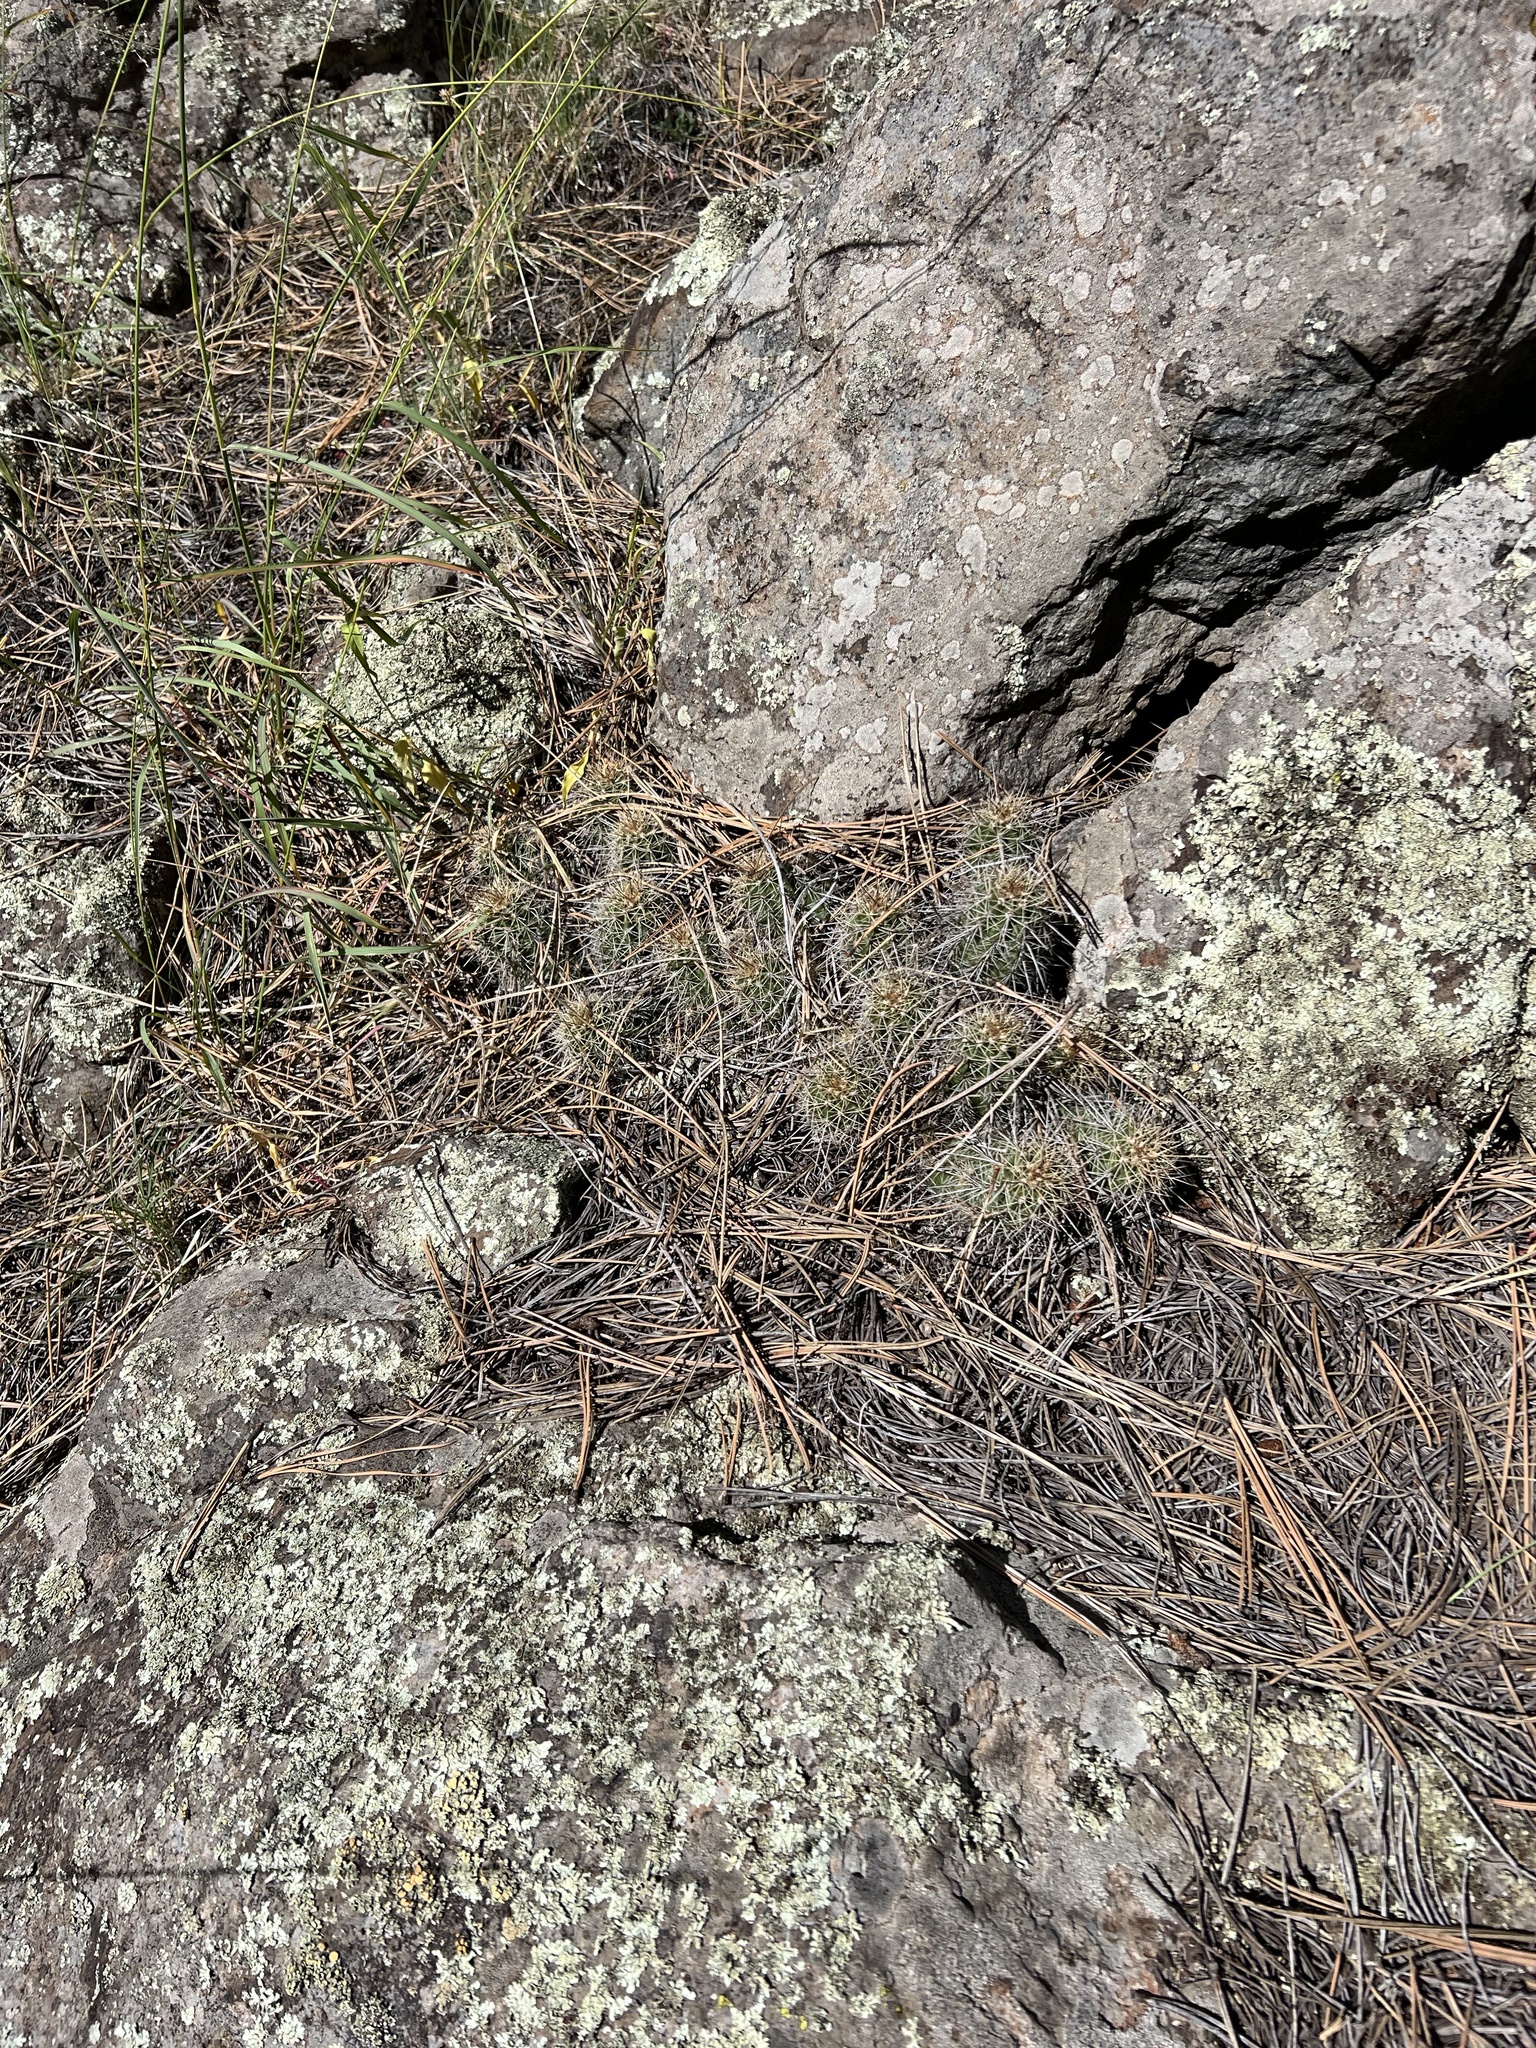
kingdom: Plantae
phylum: Tracheophyta
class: Magnoliopsida
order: Caryophyllales
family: Cactaceae
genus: Echinocereus
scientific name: Echinocereus bakeri
